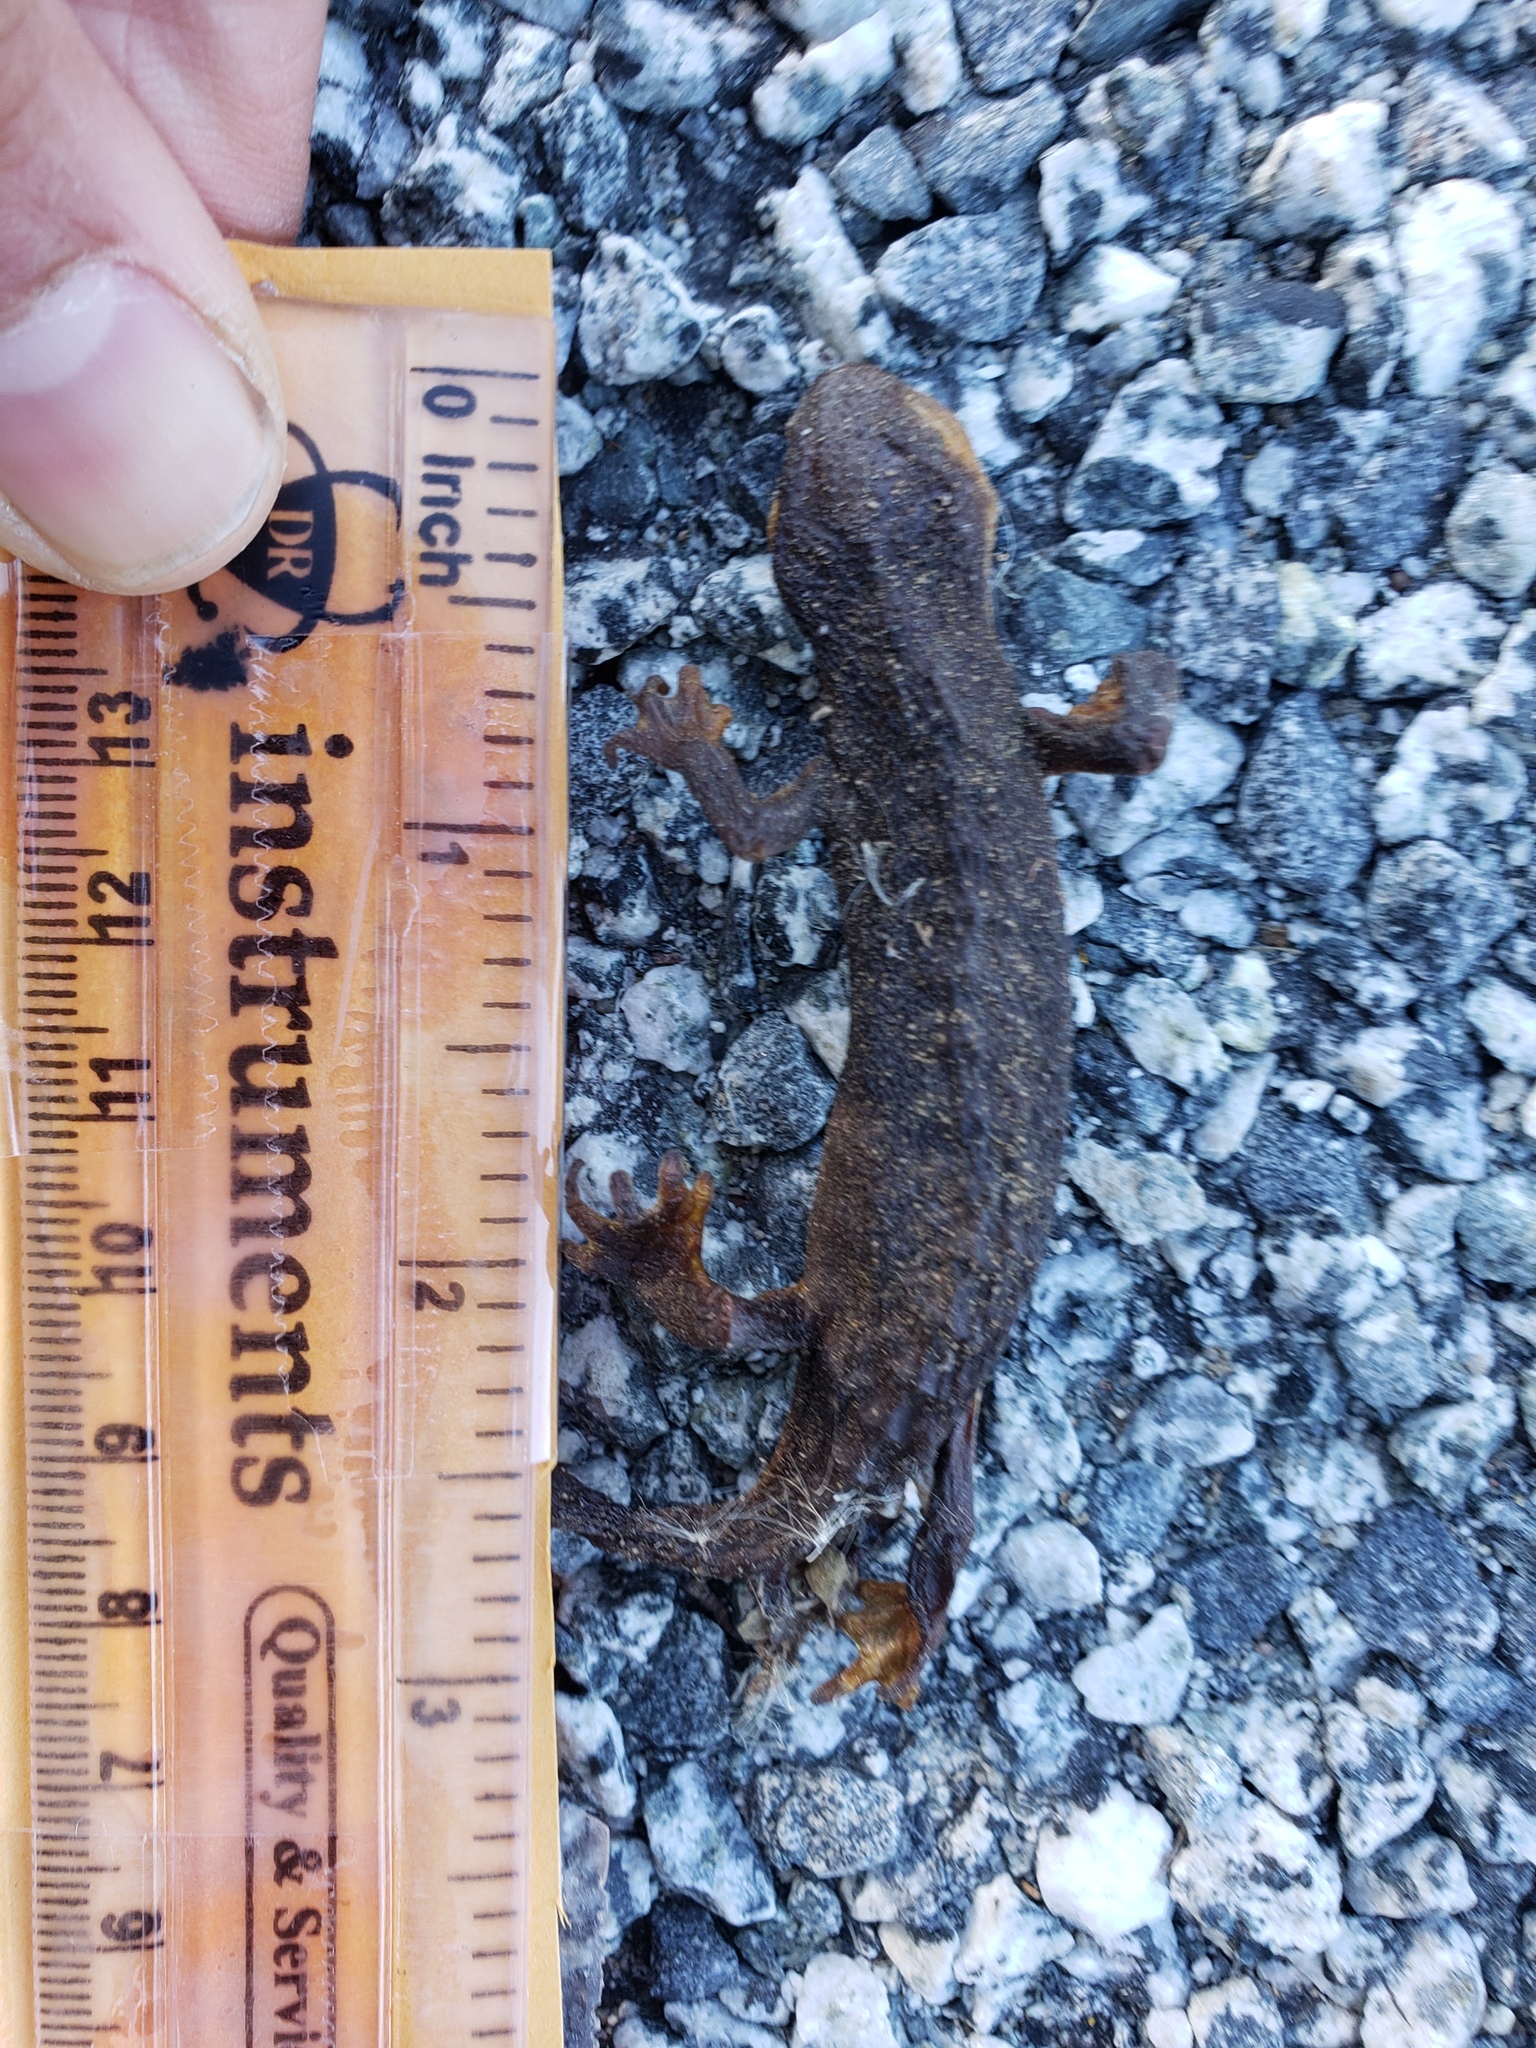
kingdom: Animalia
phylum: Chordata
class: Amphibia
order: Caudata
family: Salamandridae
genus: Taricha
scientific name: Taricha
